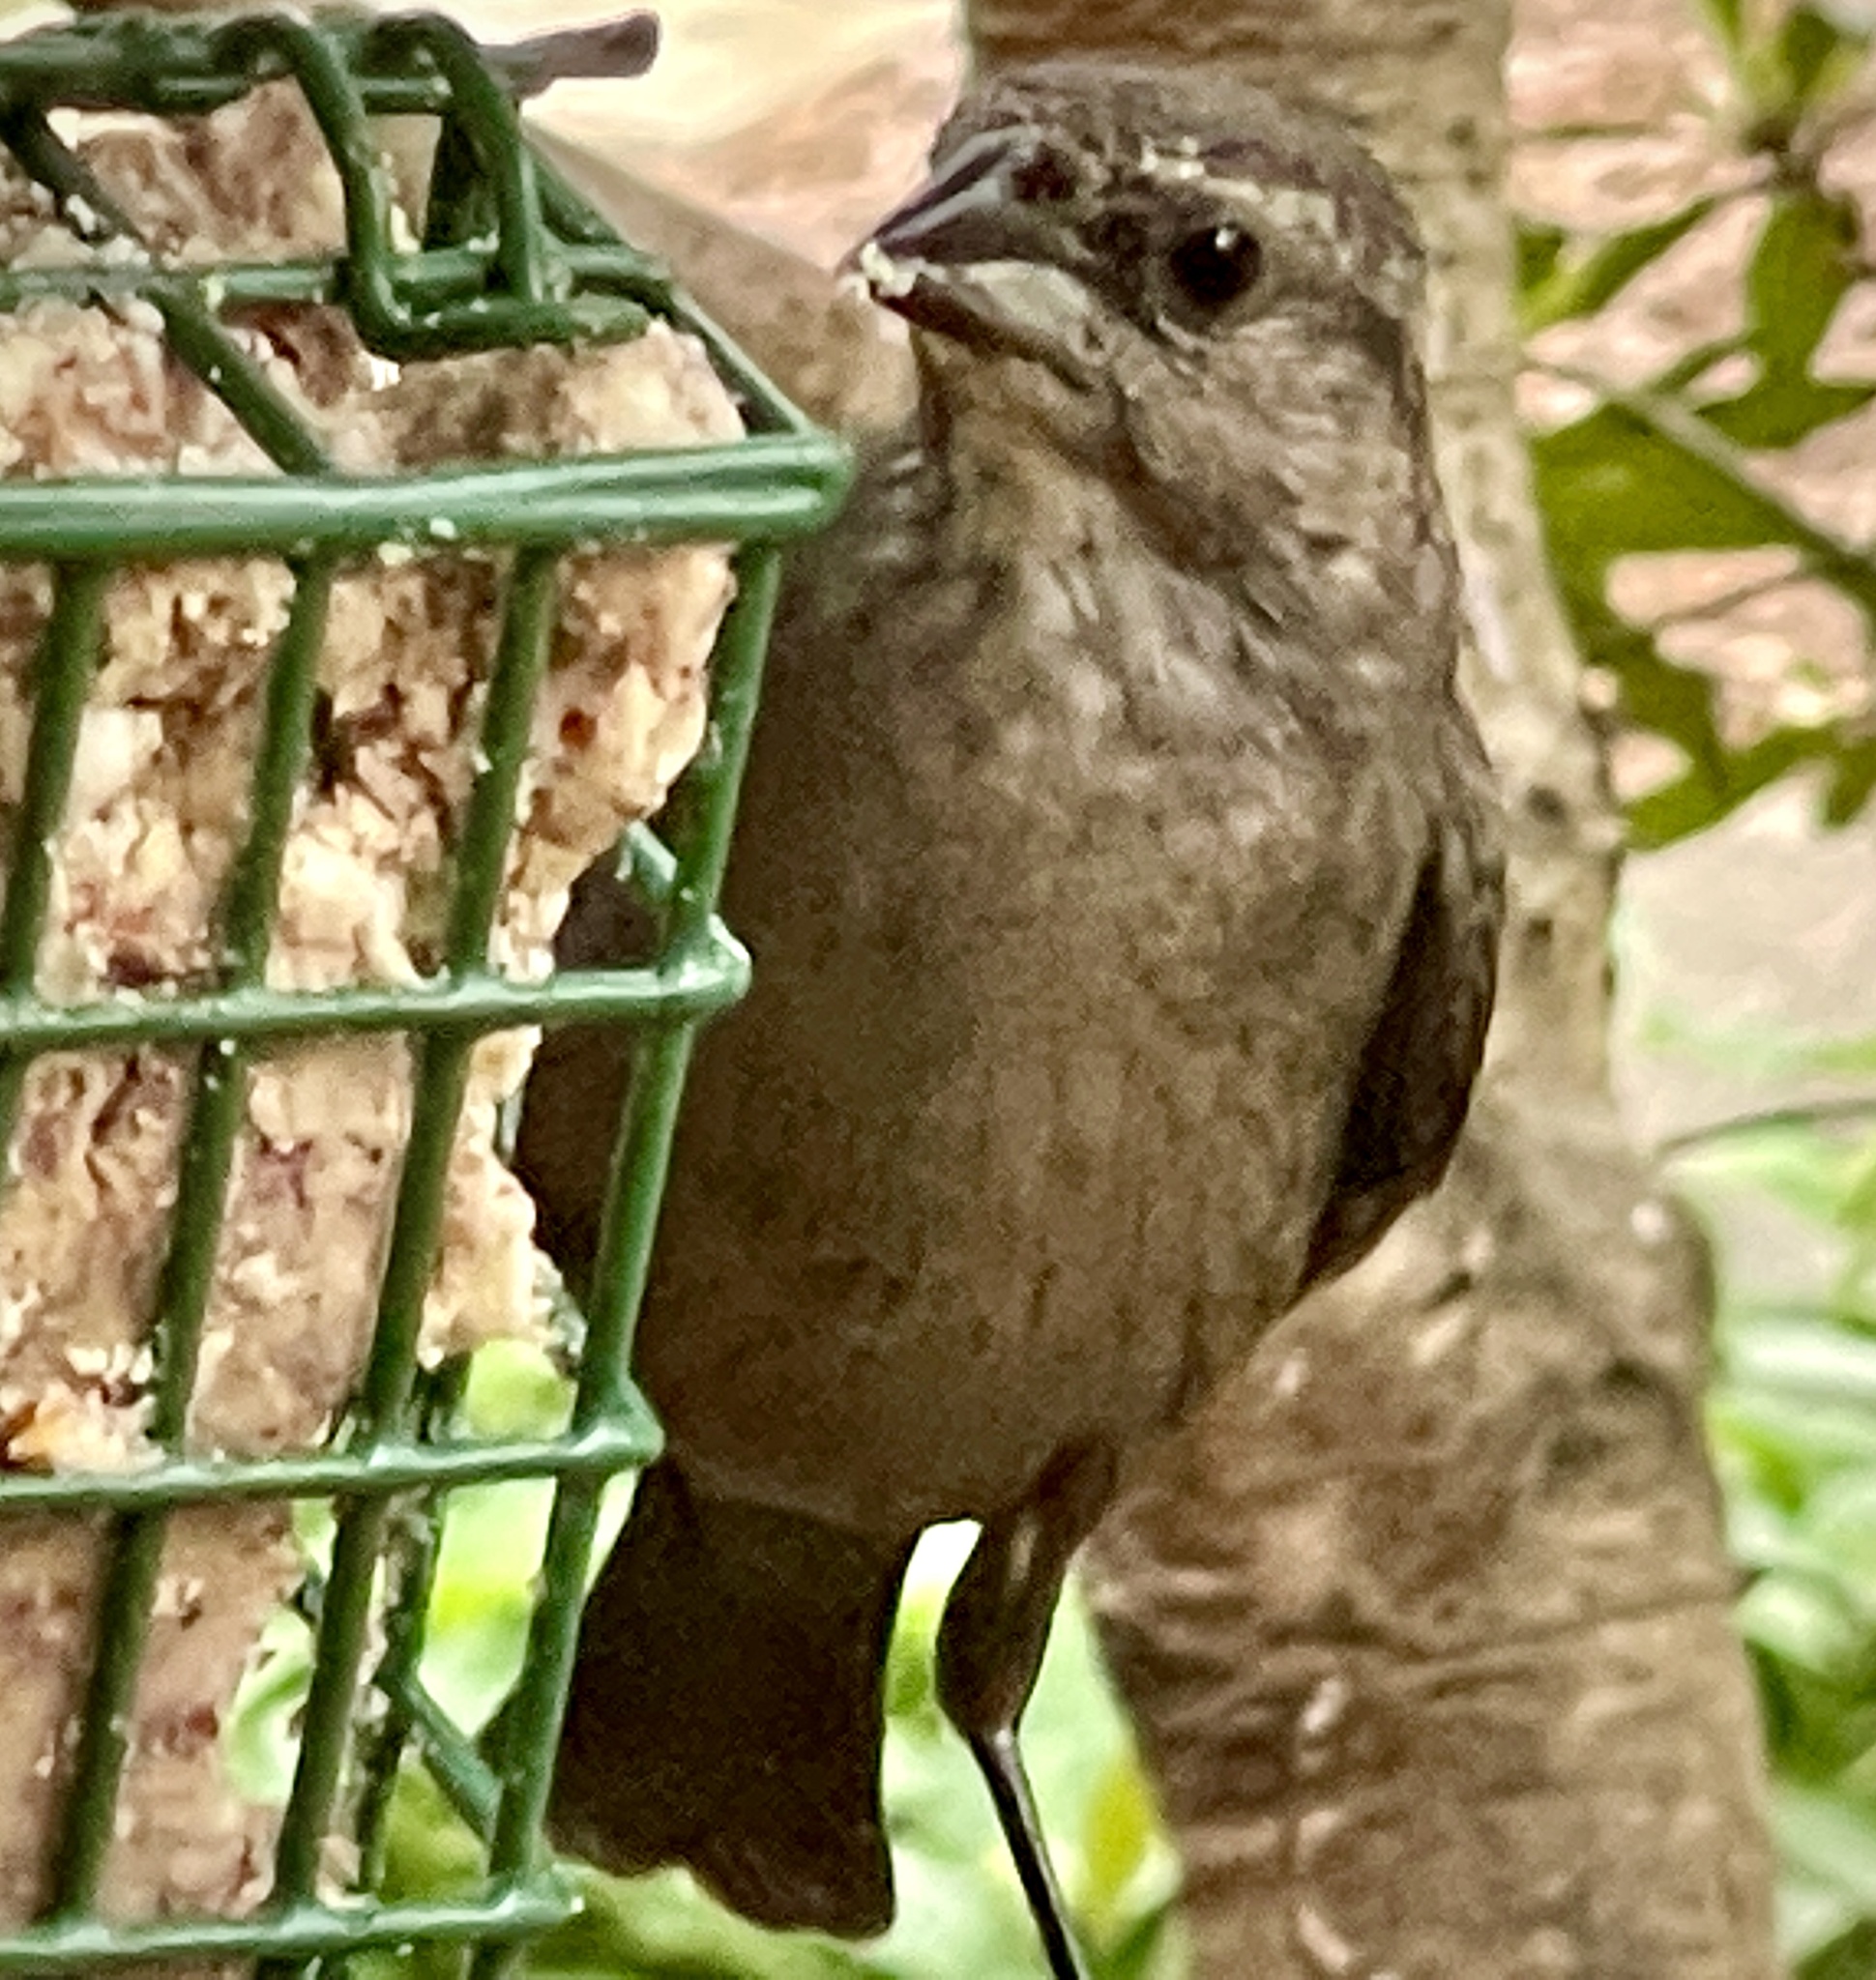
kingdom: Animalia
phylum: Chordata
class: Aves
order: Passeriformes
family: Icteridae
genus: Molothrus
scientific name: Molothrus ater
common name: Brown-headed cowbird
